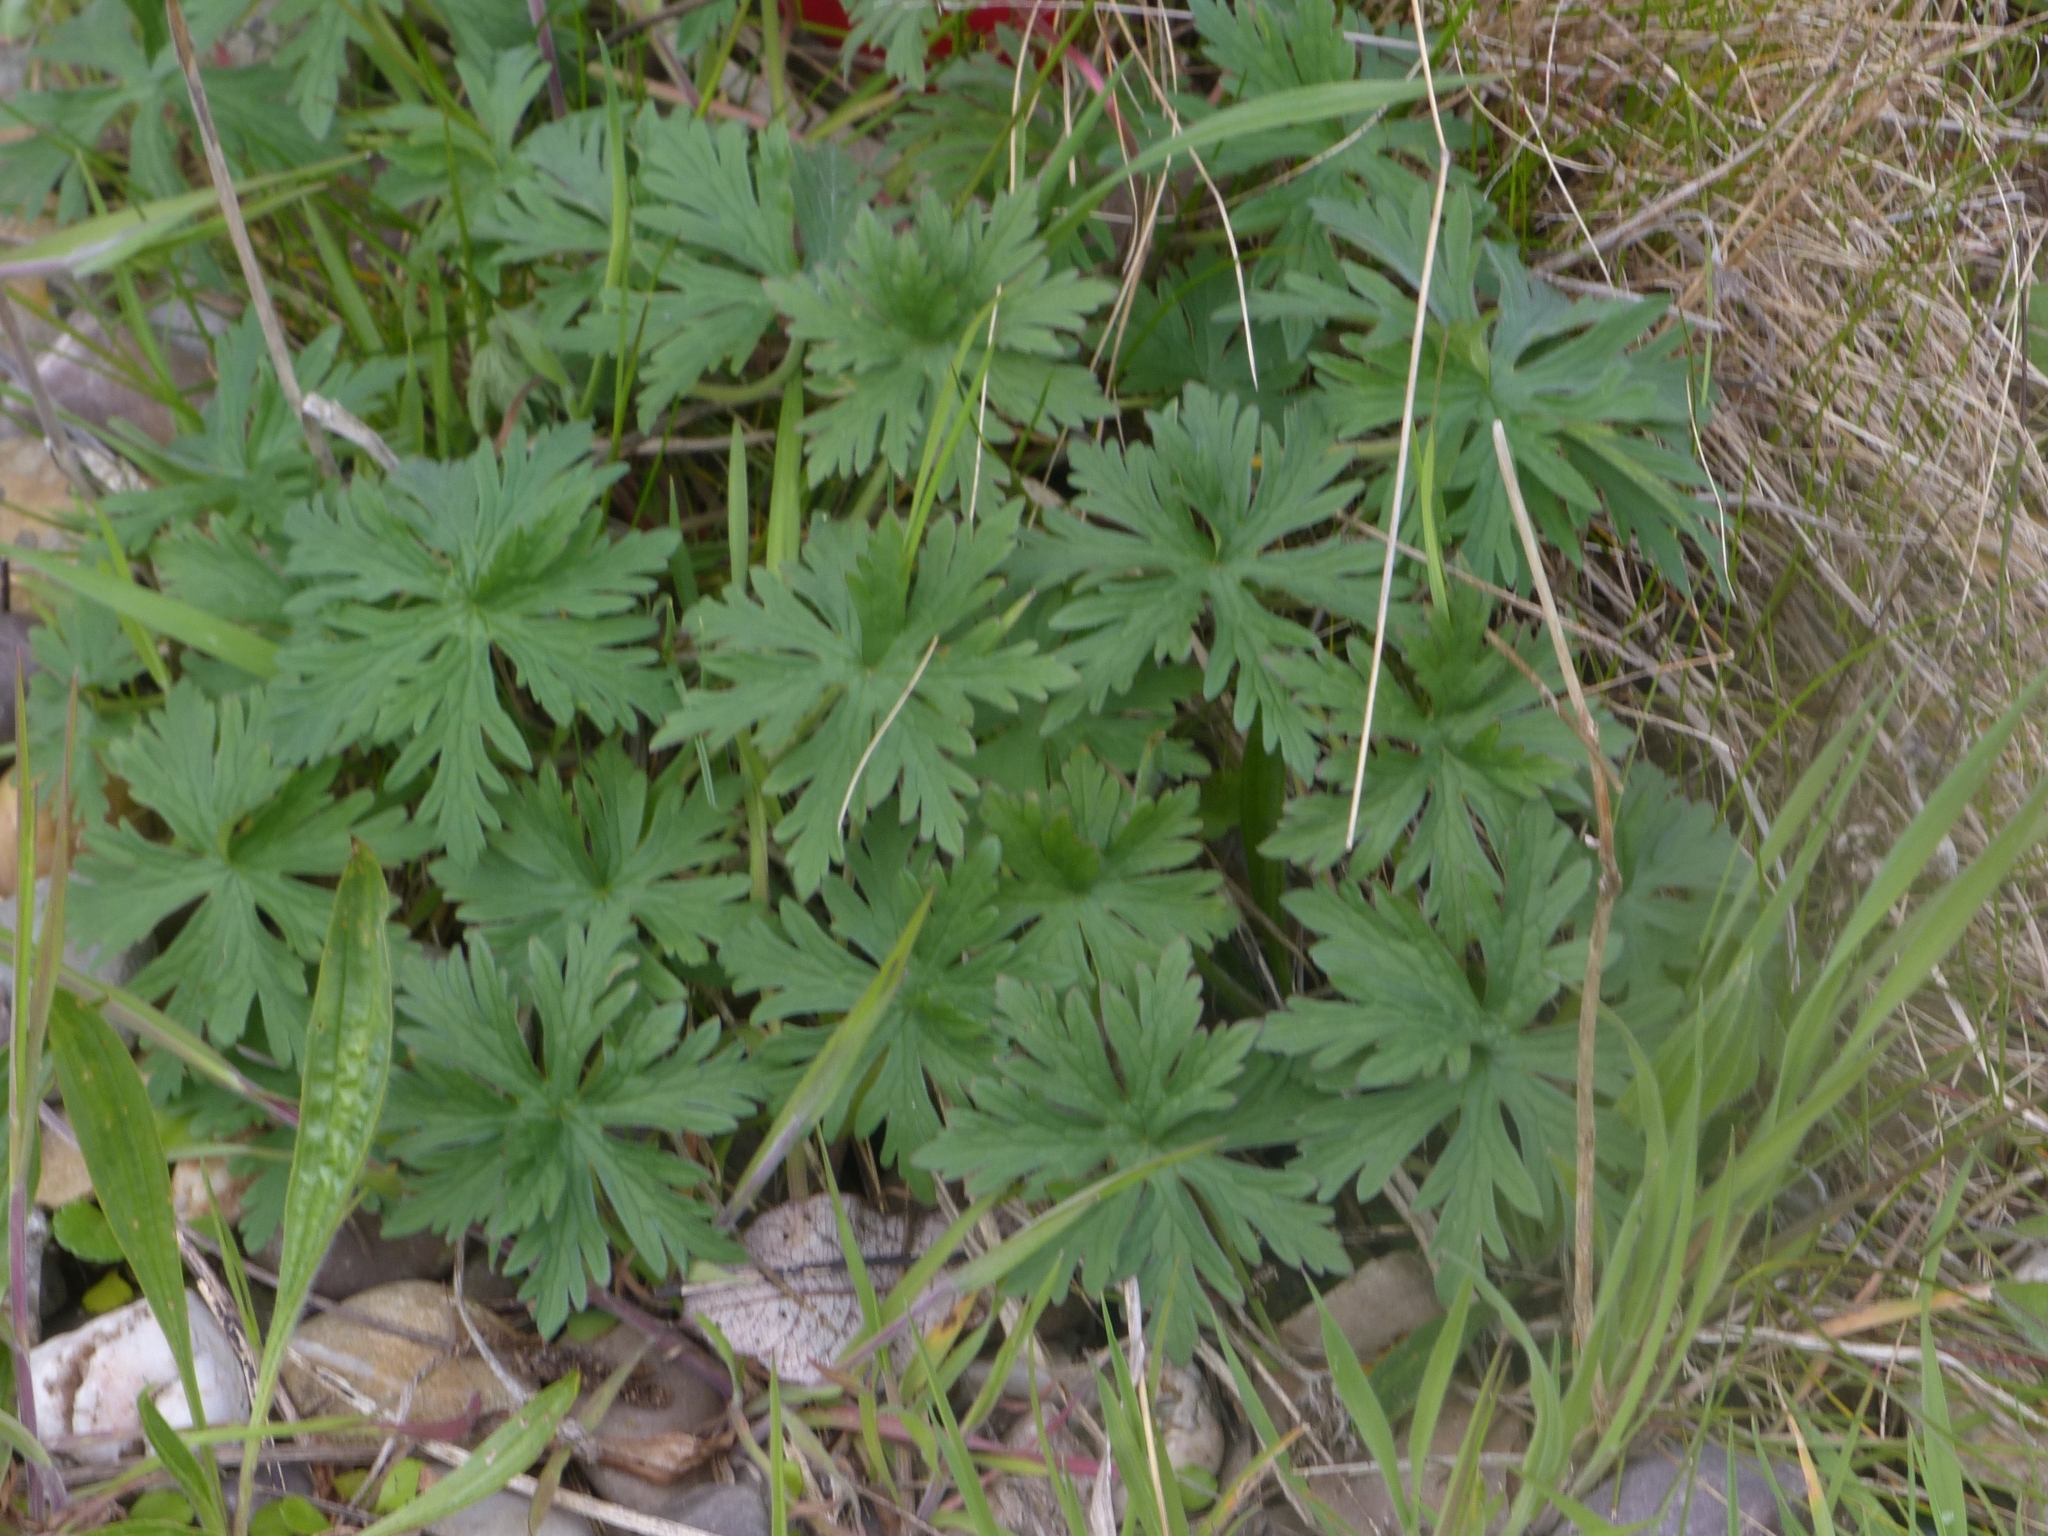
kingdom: Plantae
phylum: Tracheophyta
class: Magnoliopsida
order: Geraniales
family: Geraniaceae
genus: Geranium
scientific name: Geranium pratense
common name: Meadow crane's-bill
